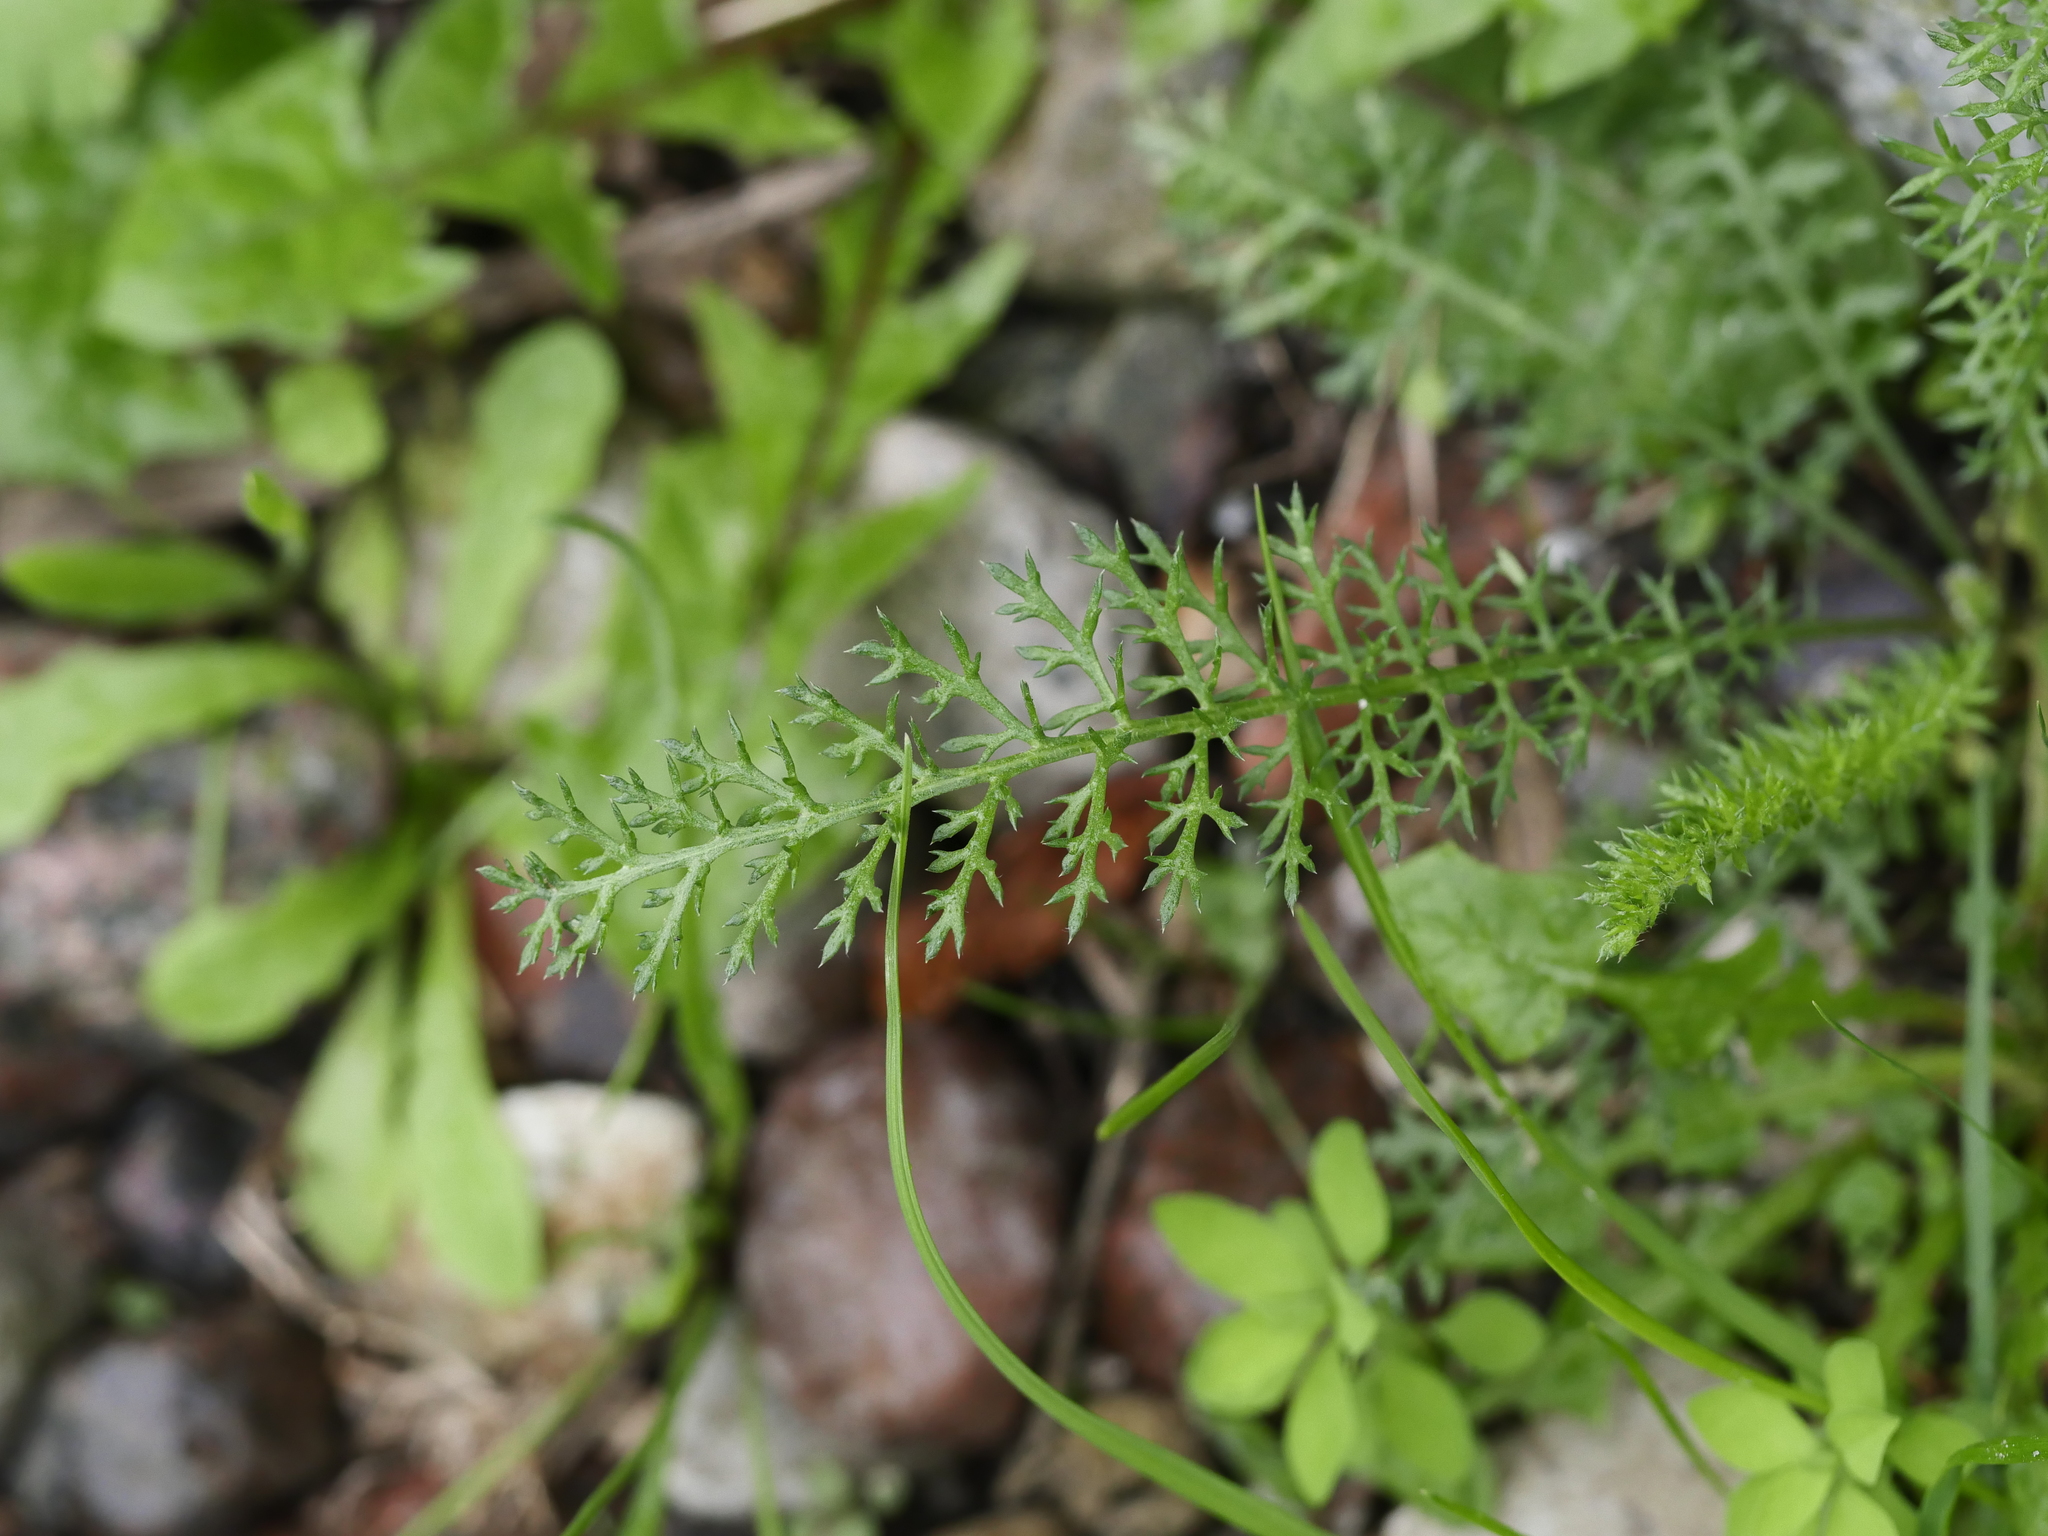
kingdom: Plantae
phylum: Tracheophyta
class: Magnoliopsida
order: Asterales
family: Asteraceae
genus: Achillea
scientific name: Achillea millefolium
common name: Yarrow
